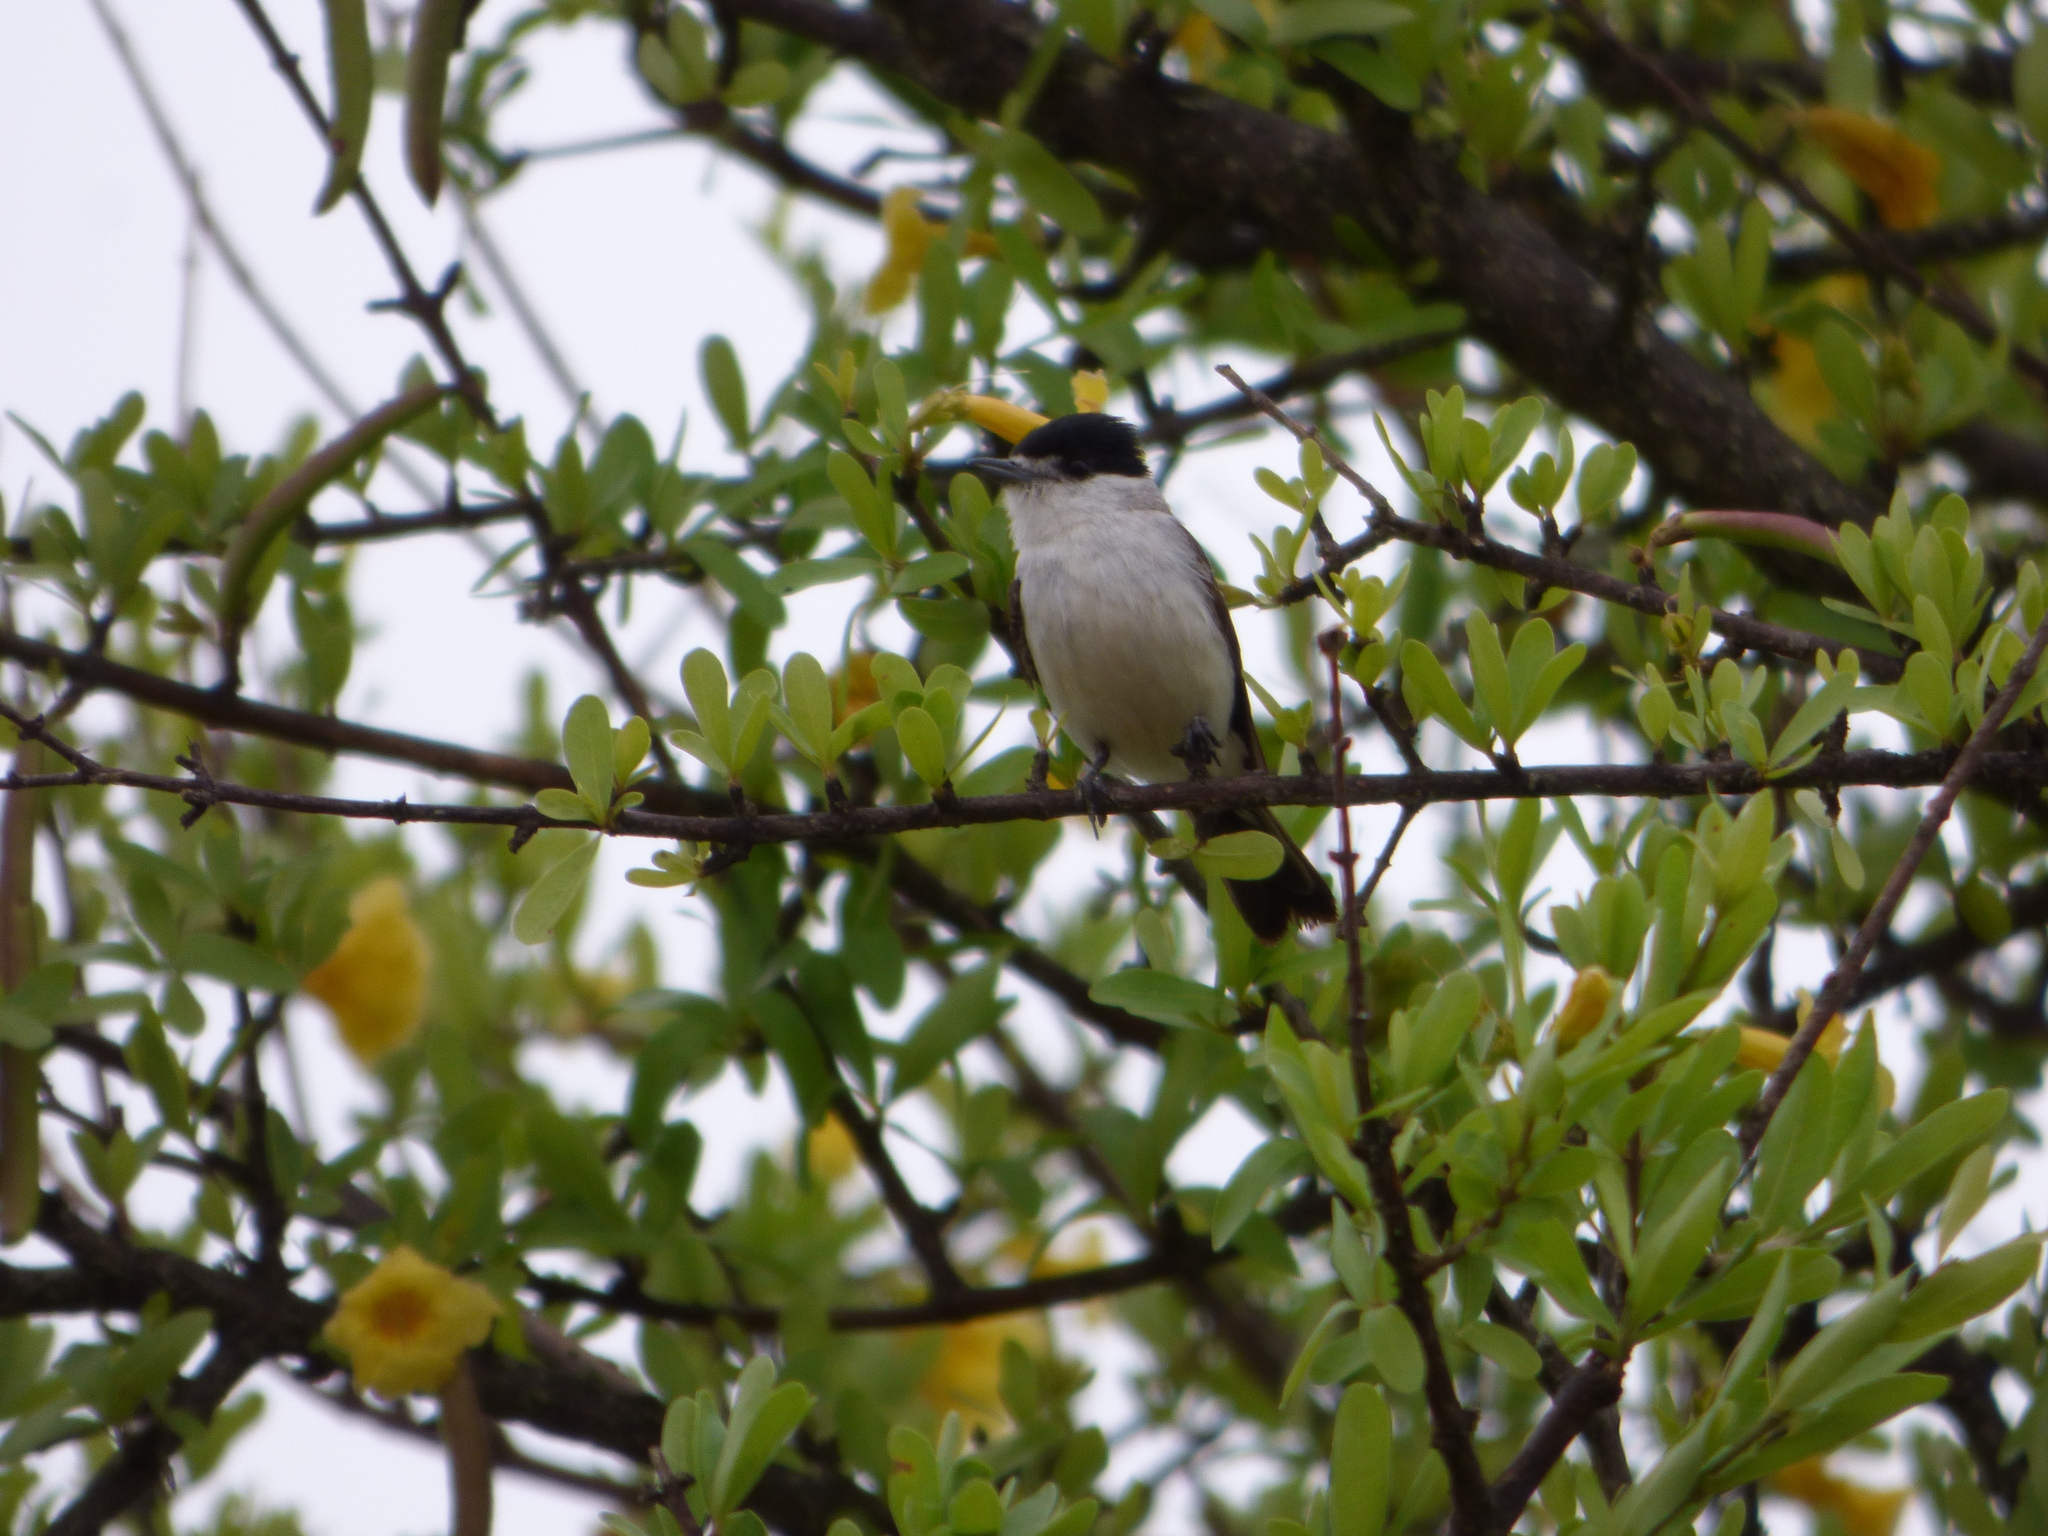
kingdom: Animalia
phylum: Chordata
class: Aves
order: Passeriformes
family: Cotingidae
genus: Xenopsaris
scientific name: Xenopsaris albinucha
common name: White-naped xenopsaris
